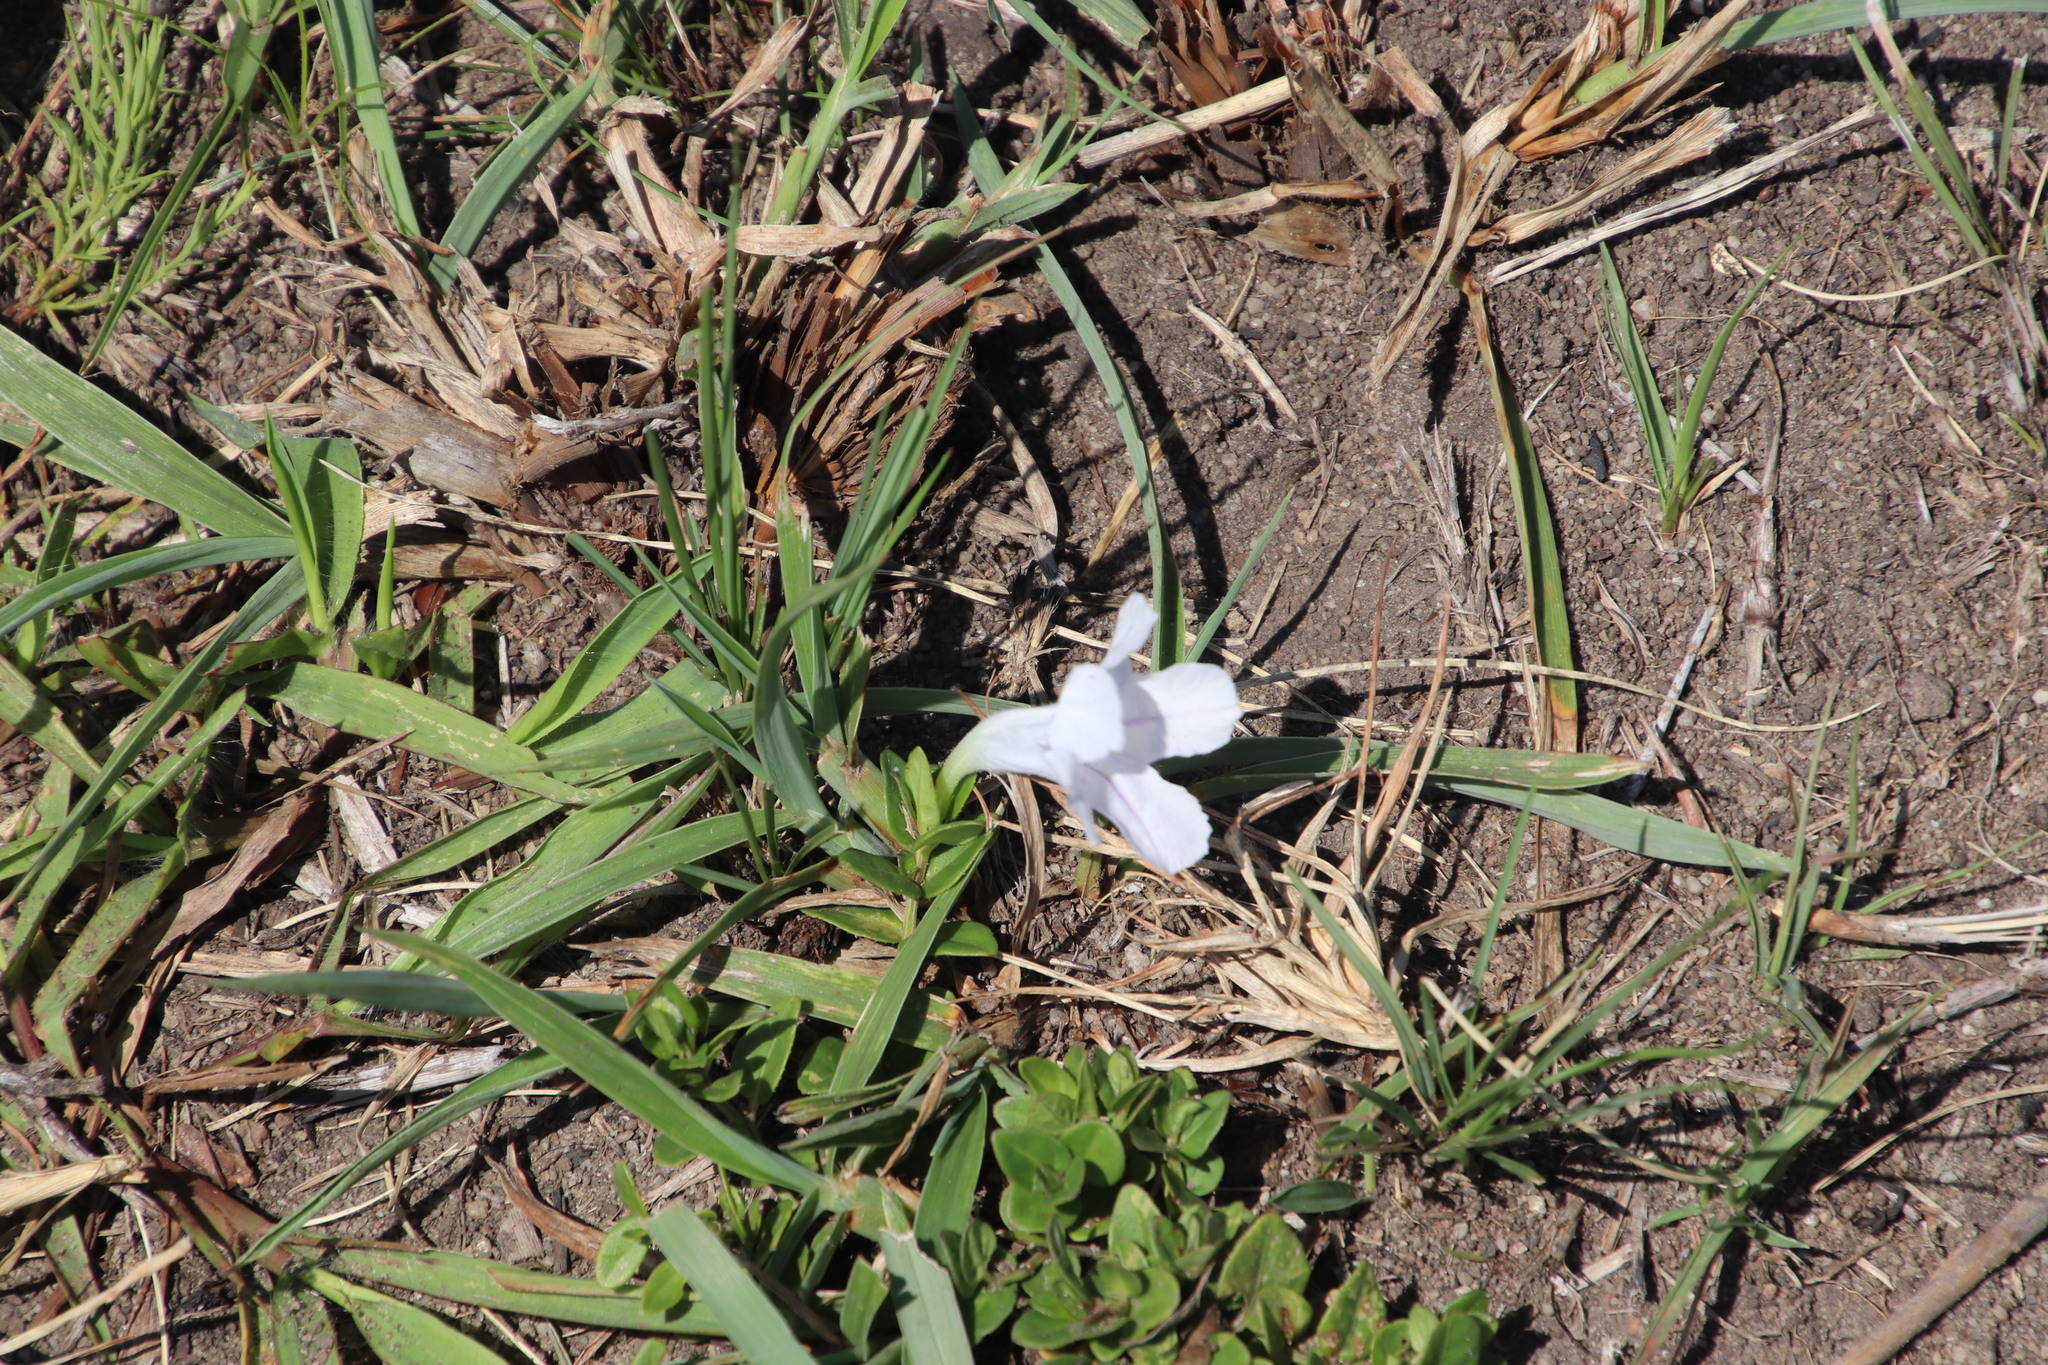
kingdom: Plantae
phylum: Tracheophyta
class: Magnoliopsida
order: Lamiales
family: Acanthaceae
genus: Ruellia
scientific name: Ruellia cordata
